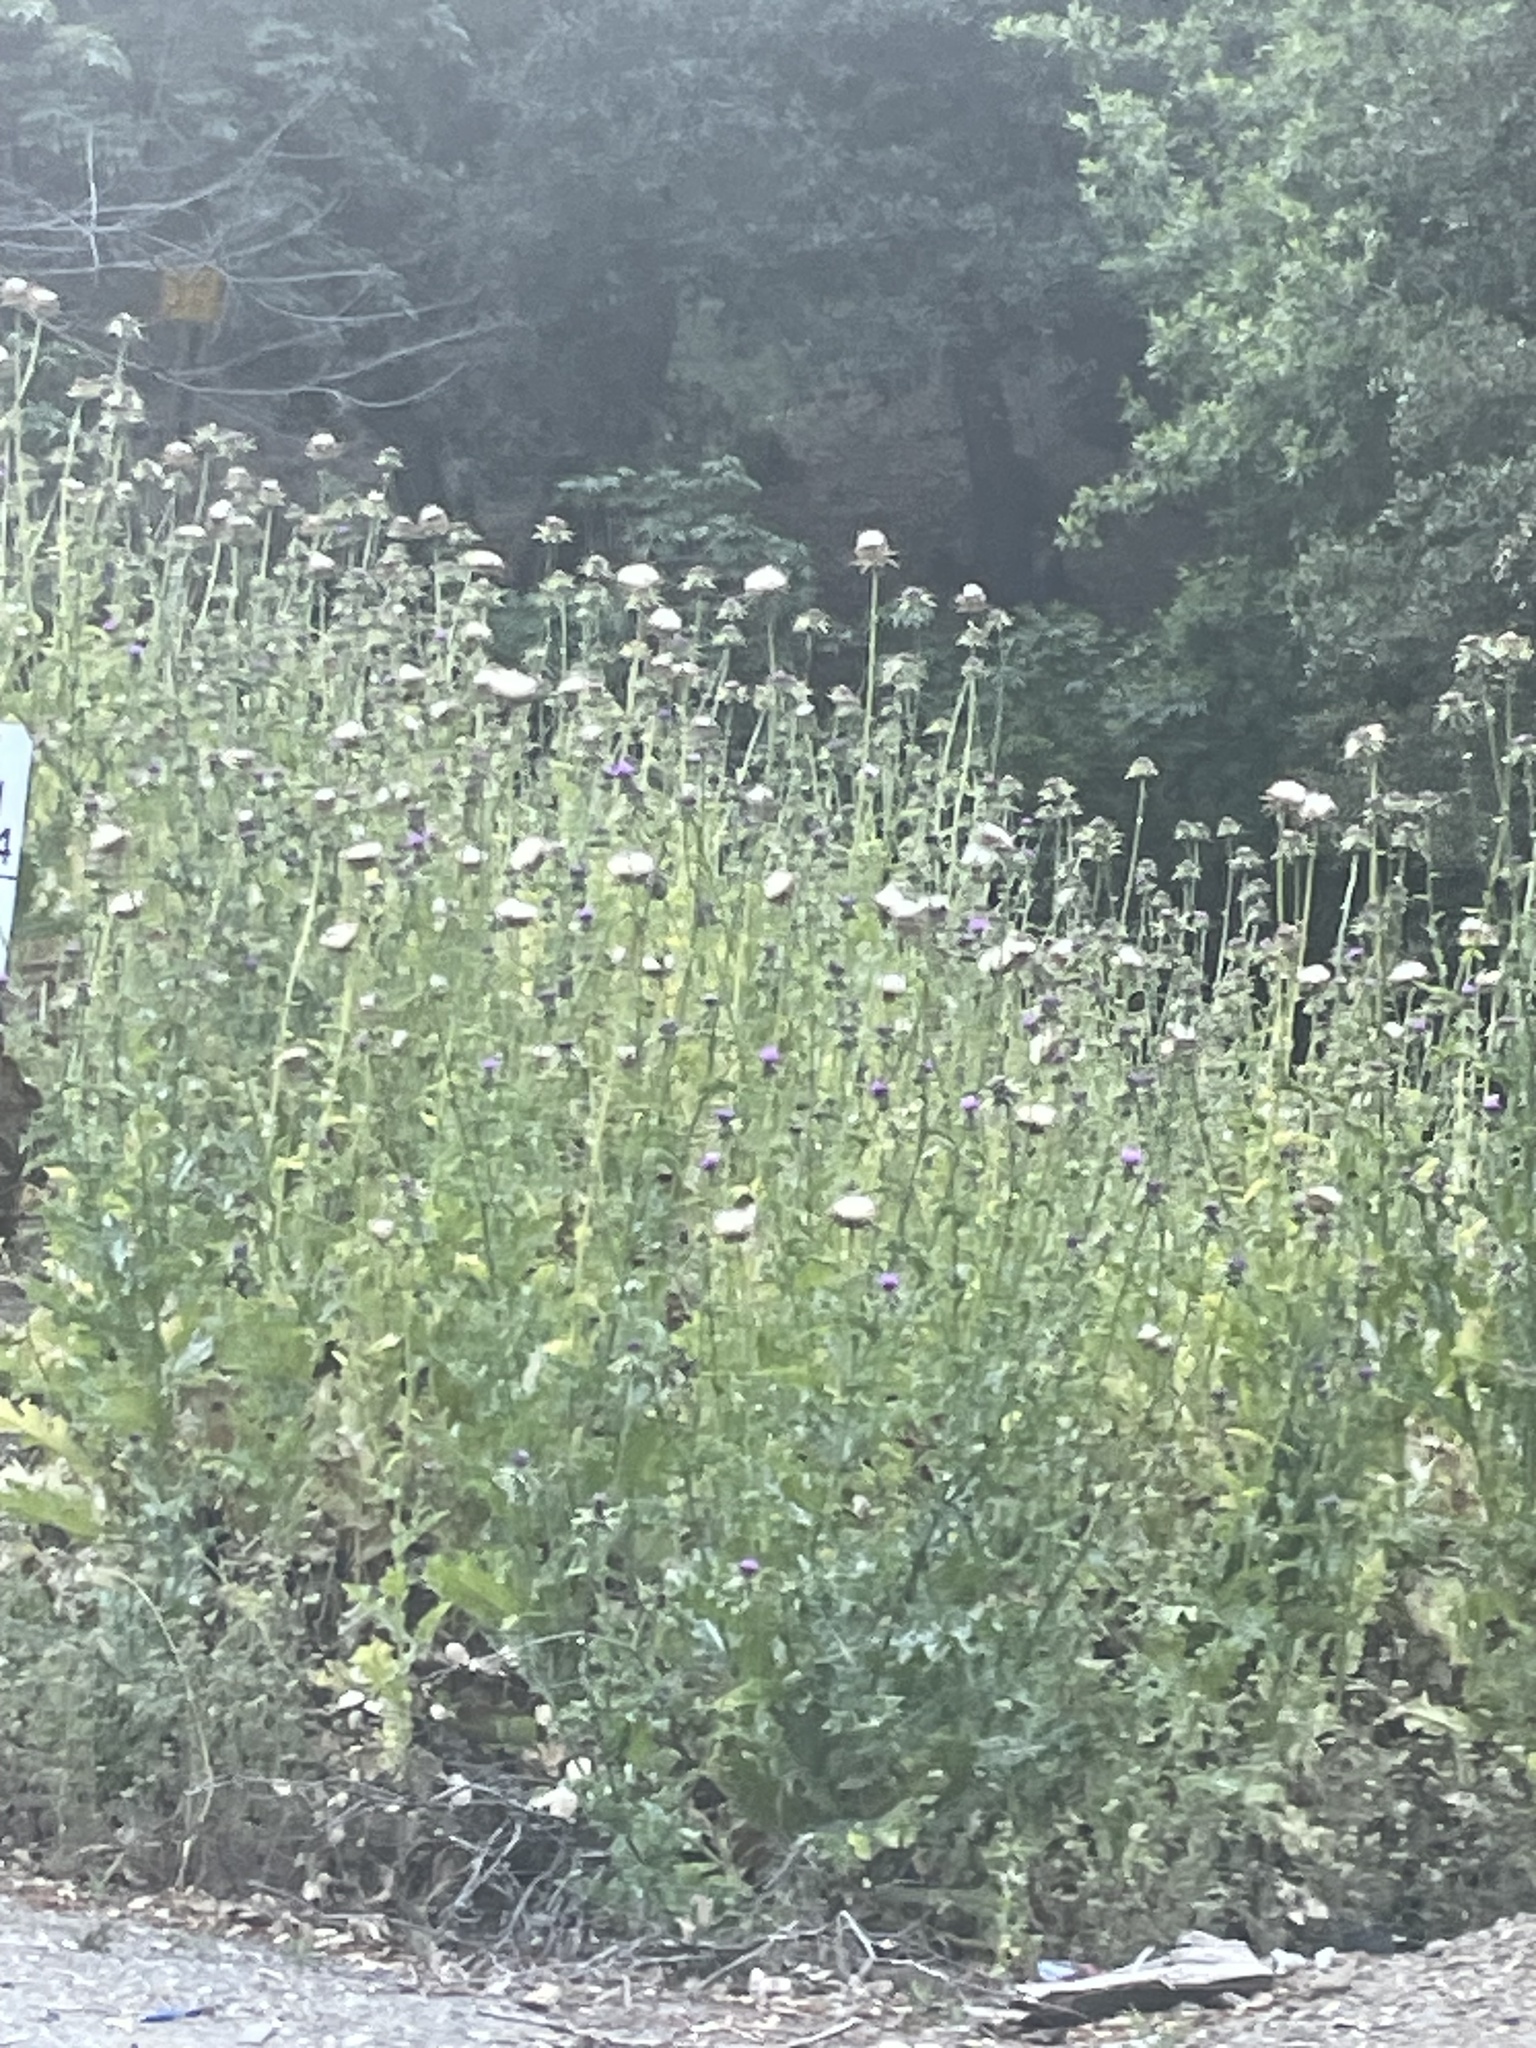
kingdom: Plantae
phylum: Tracheophyta
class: Magnoliopsida
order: Asterales
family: Asteraceae
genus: Silybum
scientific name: Silybum marianum
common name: Milk thistle
